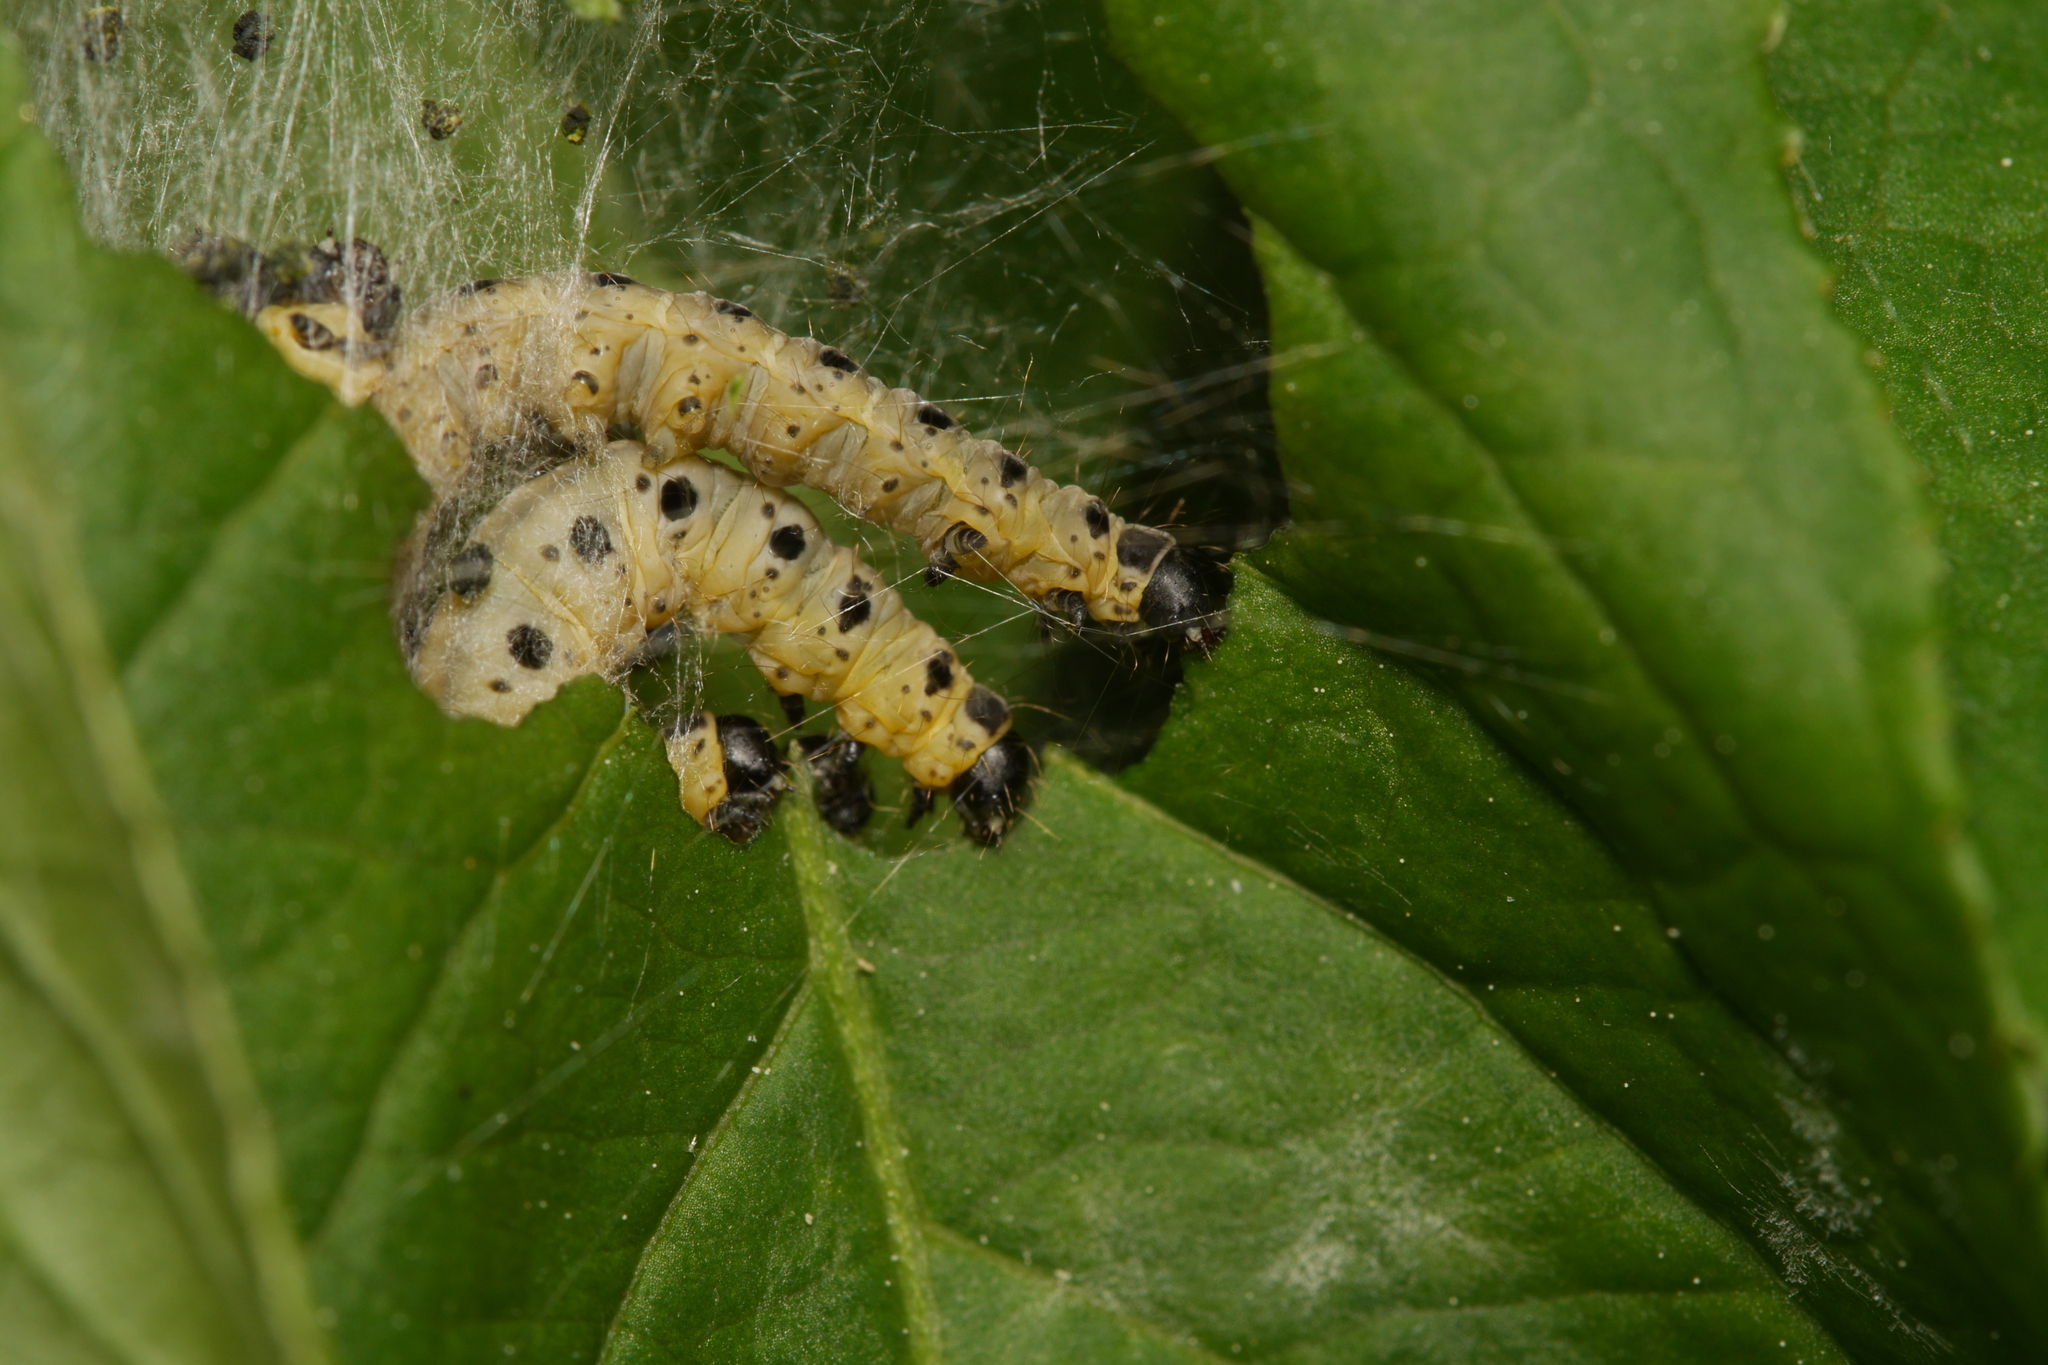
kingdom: Animalia
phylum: Arthropoda
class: Insecta
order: Lepidoptera
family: Yponomeutidae
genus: Yponomeuta
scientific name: Yponomeuta cagnagellus
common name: Spindle ermine
